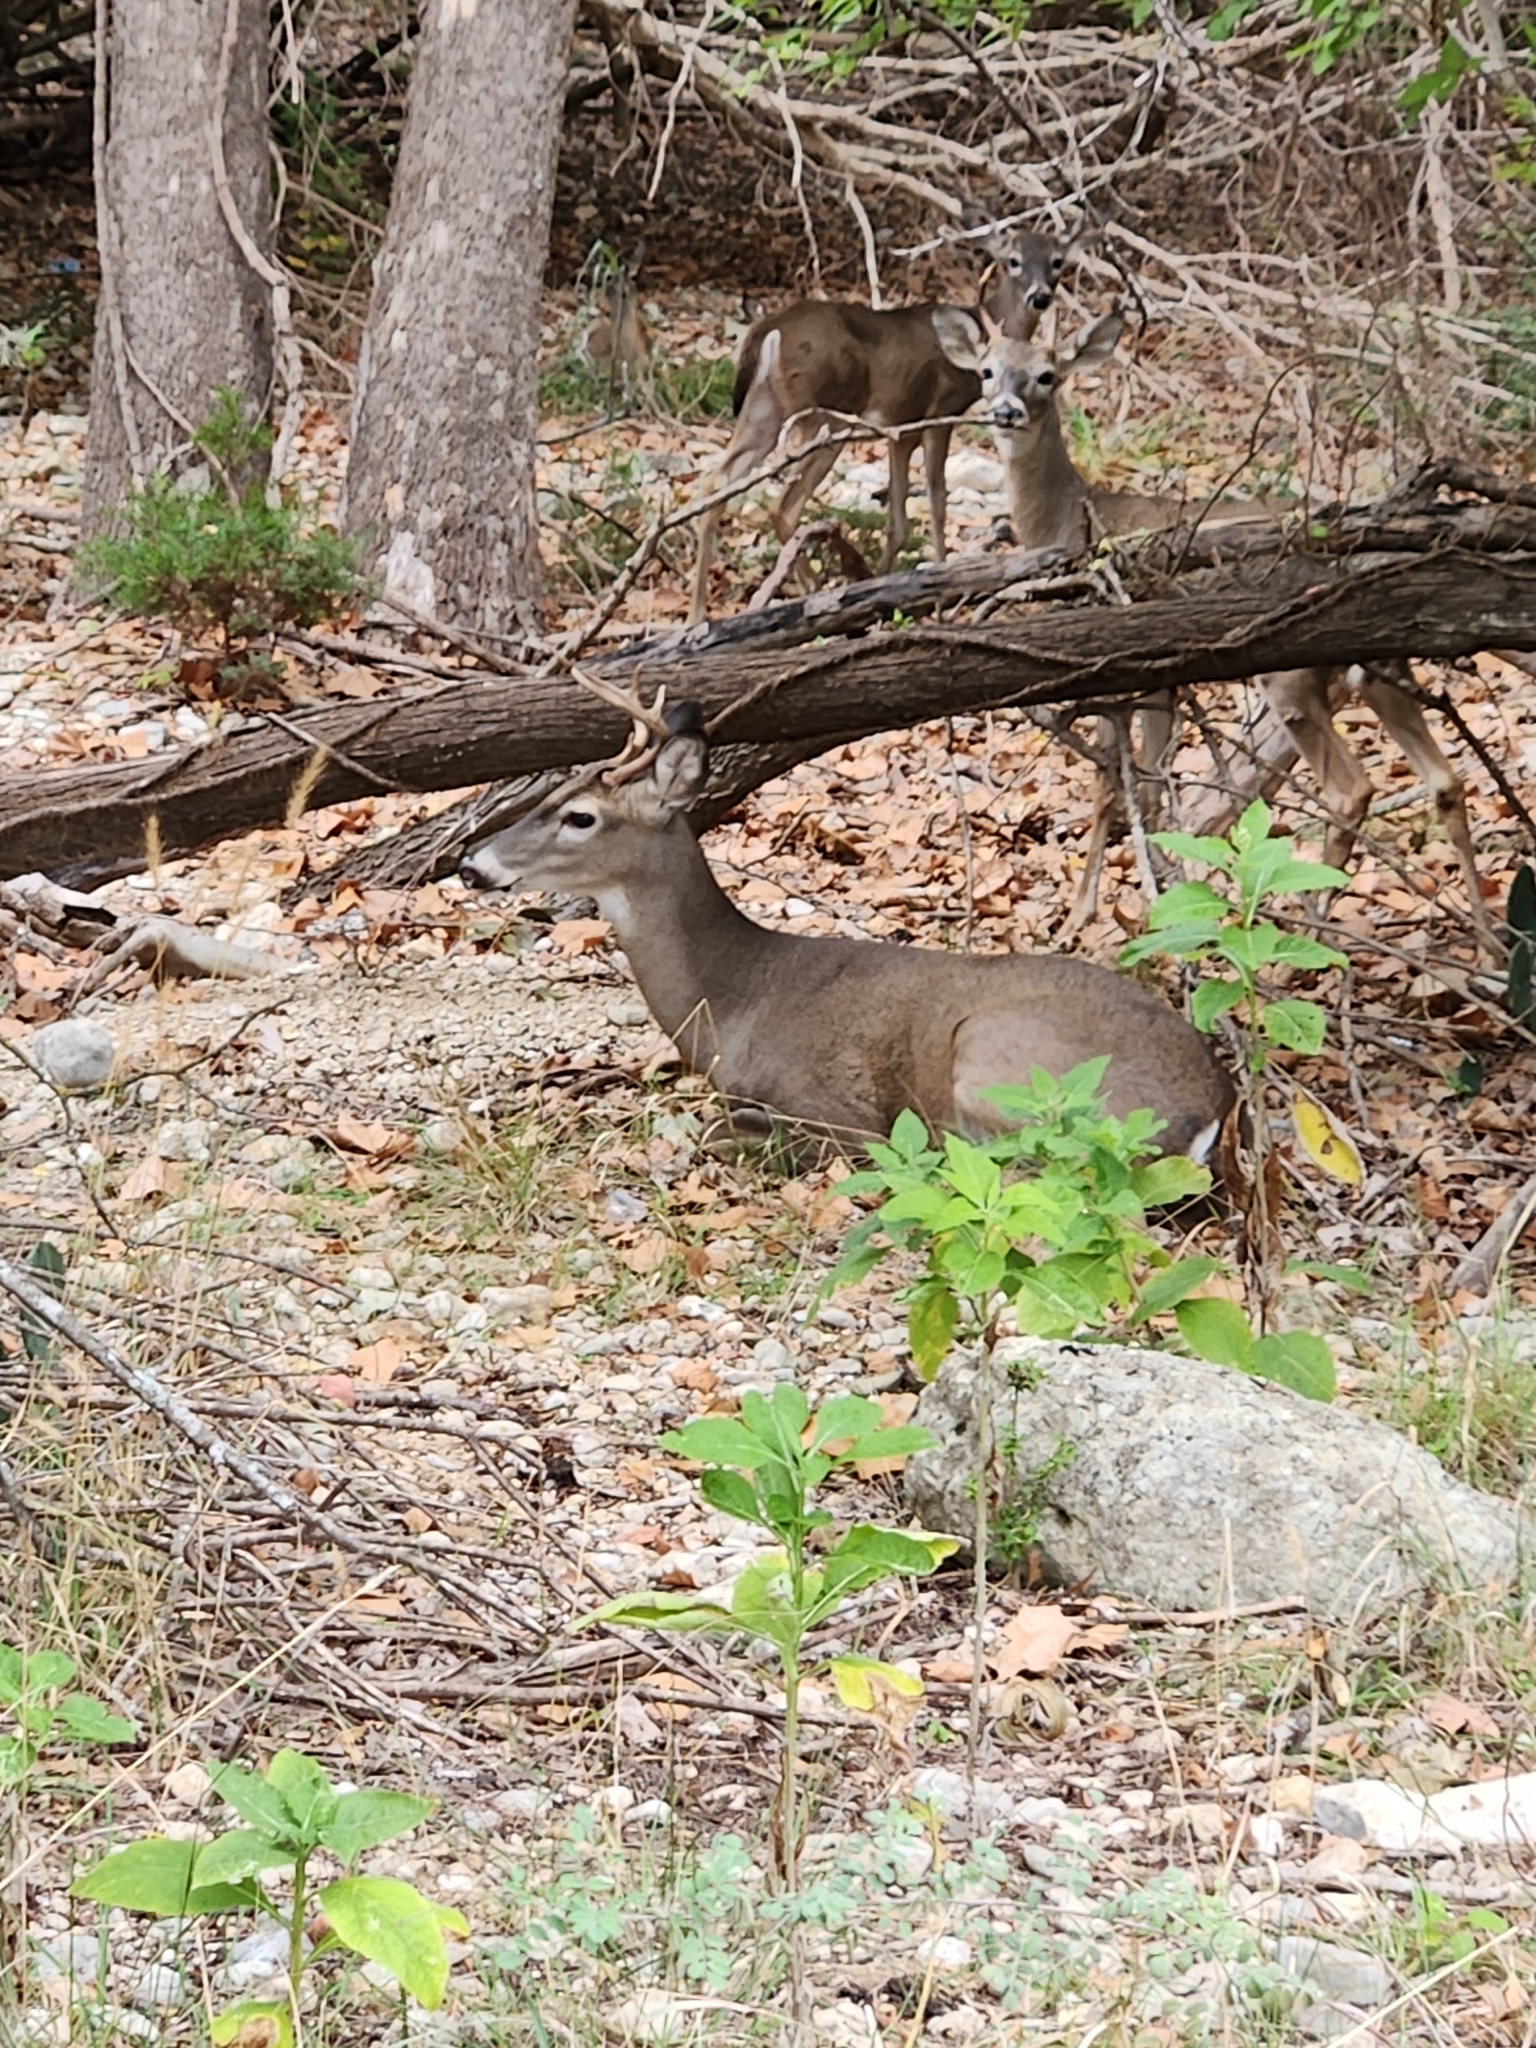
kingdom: Animalia
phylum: Chordata
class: Mammalia
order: Artiodactyla
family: Cervidae
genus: Odocoileus
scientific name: Odocoileus virginianus
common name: White-tailed deer
